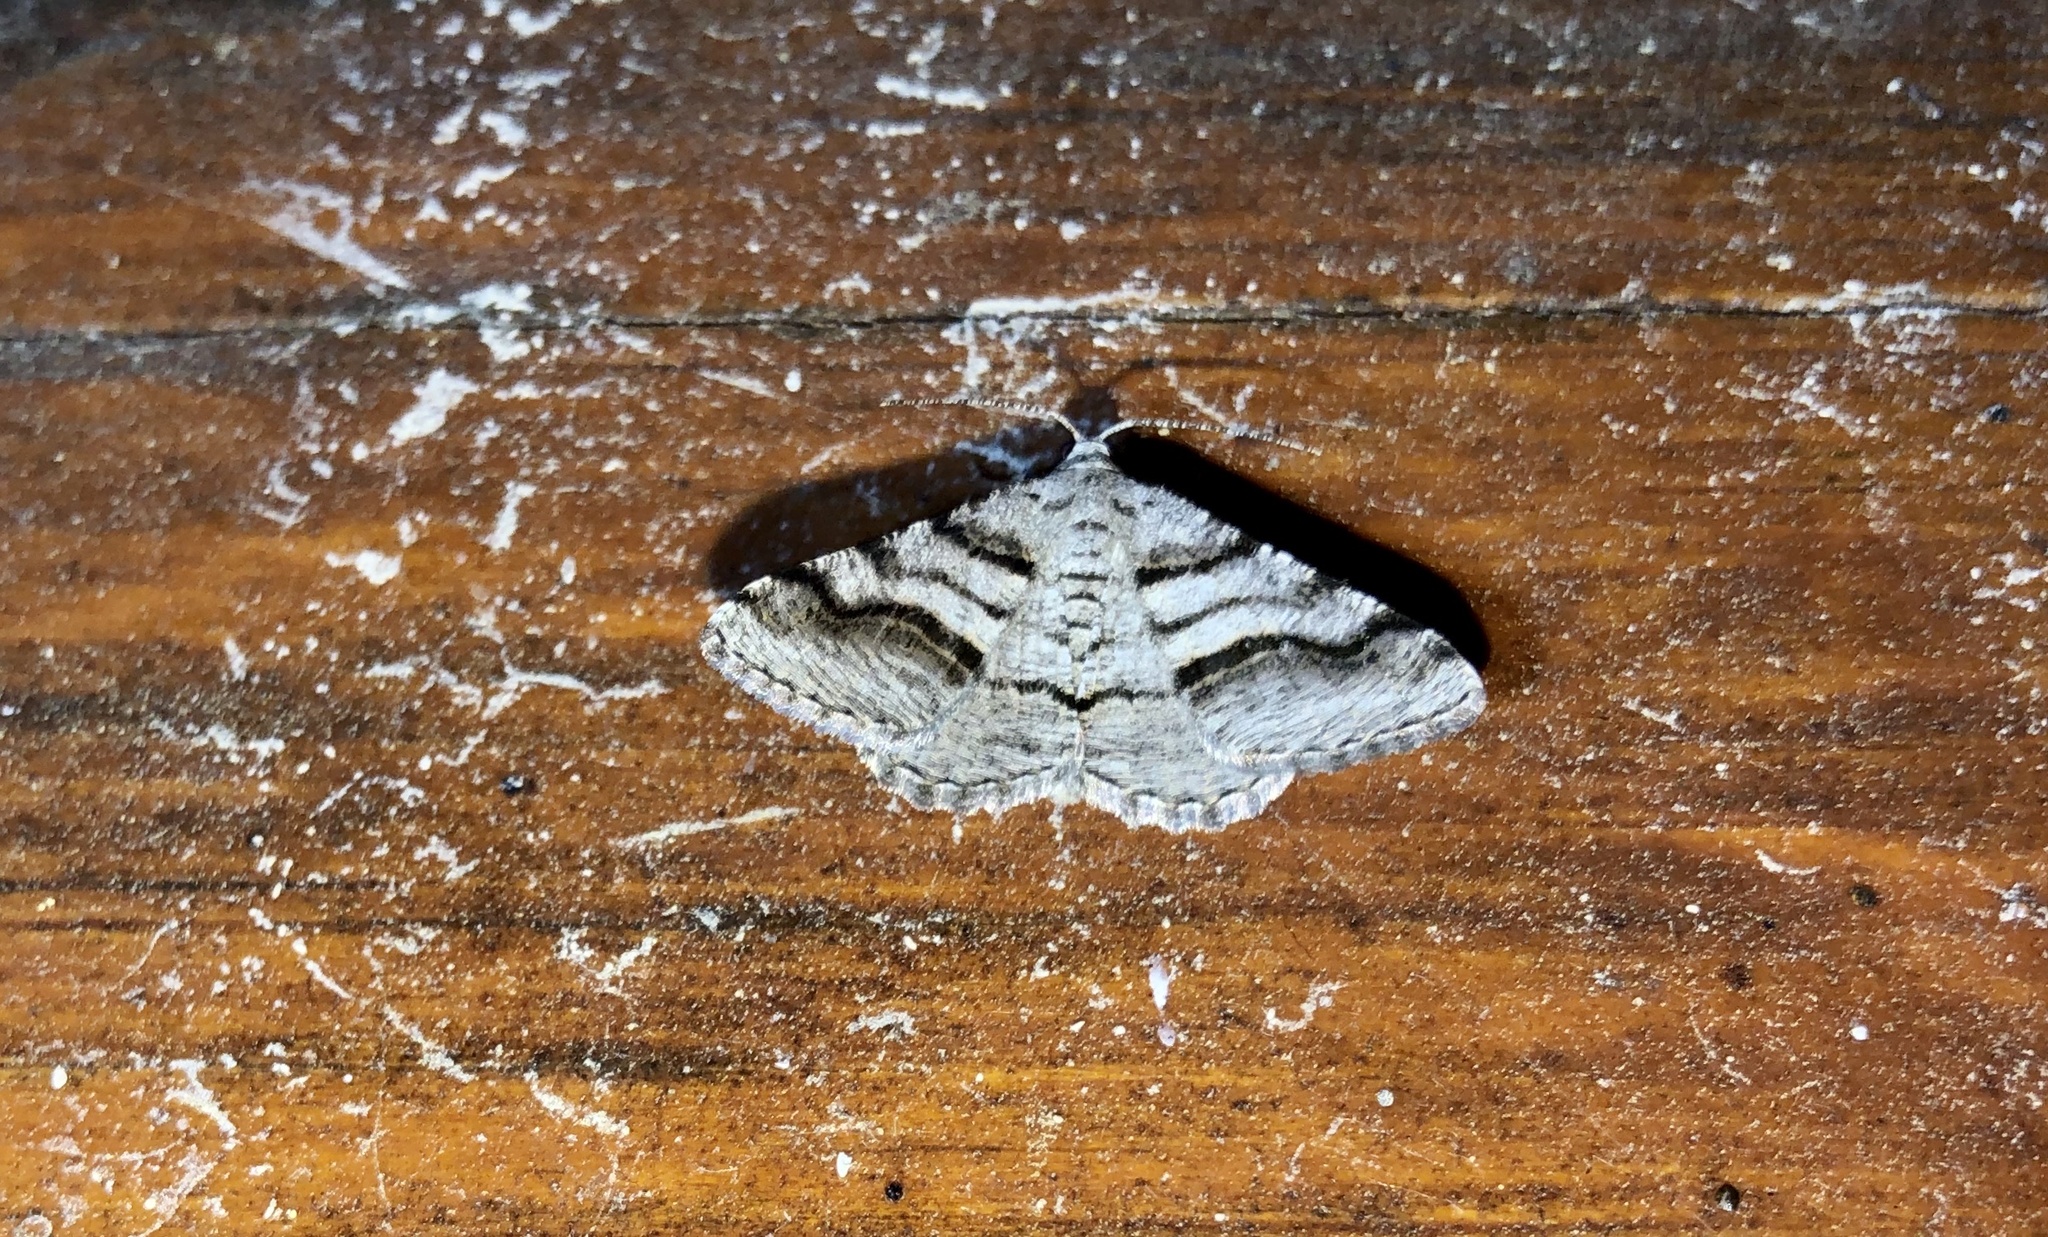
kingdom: Animalia
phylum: Arthropoda
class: Insecta
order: Lepidoptera
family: Geometridae
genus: Digrammia
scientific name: Digrammia continuata
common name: Curve-lined angle
